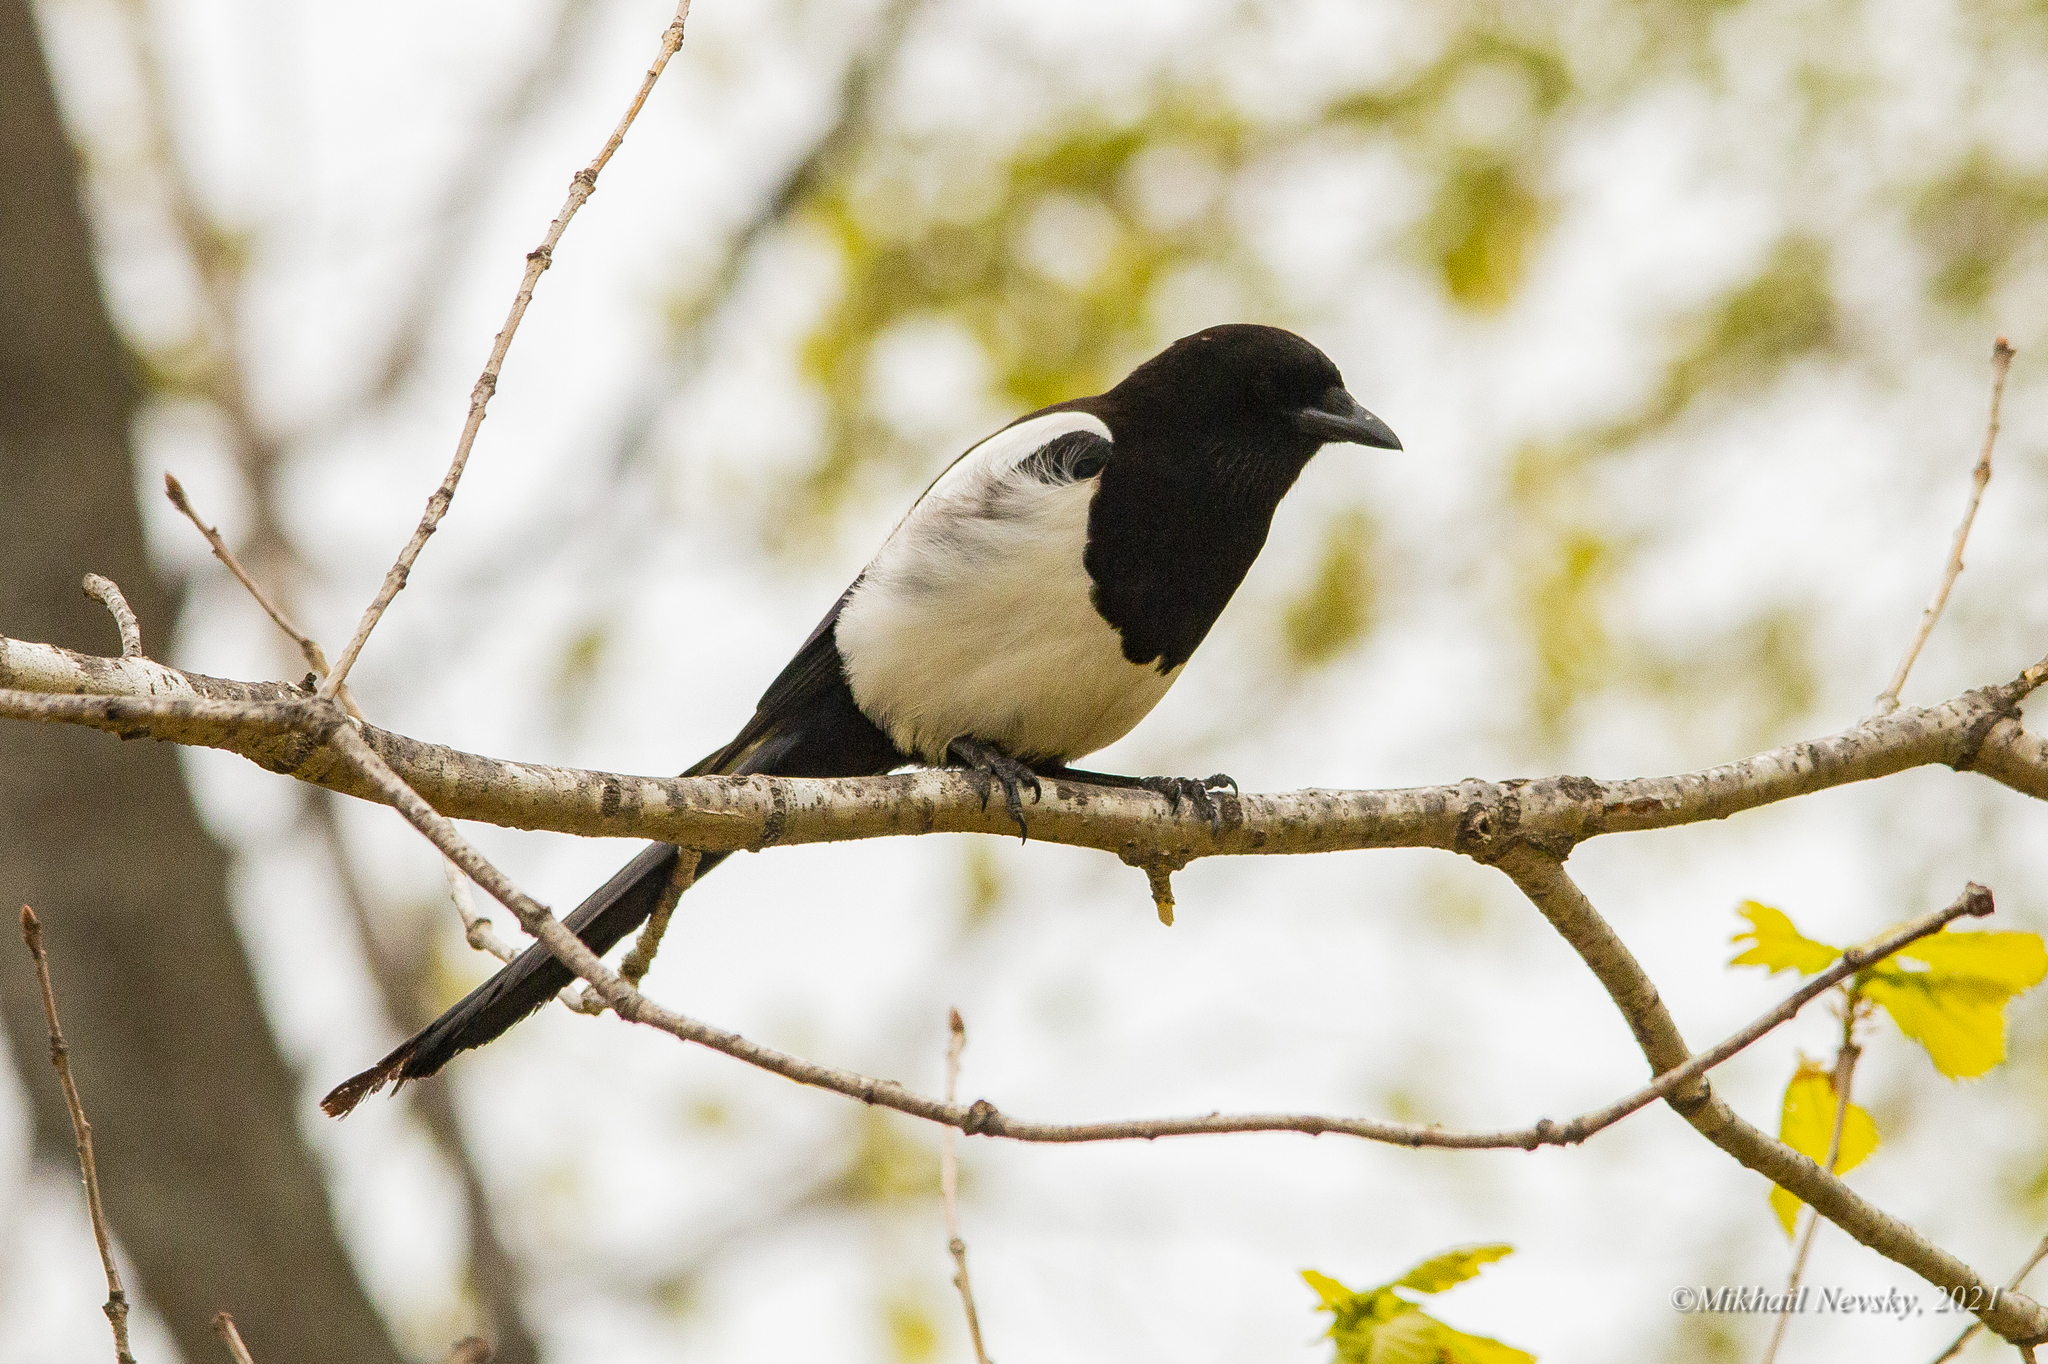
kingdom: Animalia
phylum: Chordata
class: Aves
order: Passeriformes
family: Corvidae
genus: Pica
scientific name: Pica serica
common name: Oriental magpie
